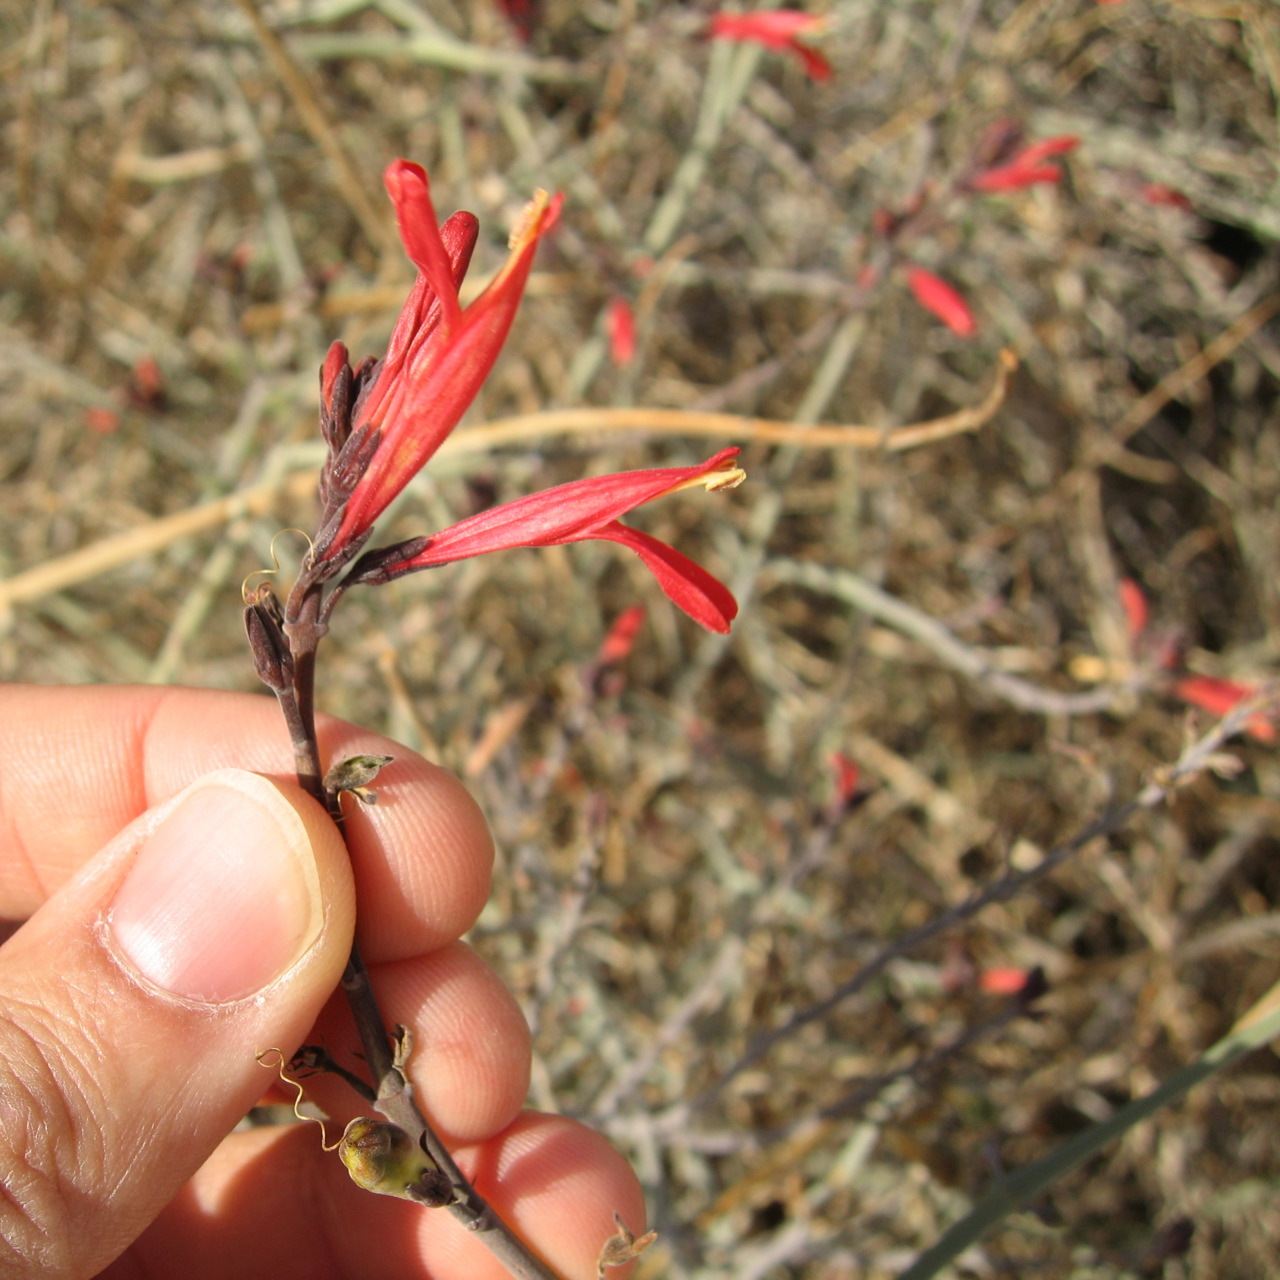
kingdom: Plantae
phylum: Tracheophyta
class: Magnoliopsida
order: Lamiales
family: Acanthaceae
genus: Justicia
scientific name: Justicia californica
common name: Chuparosa-honeysuckle
